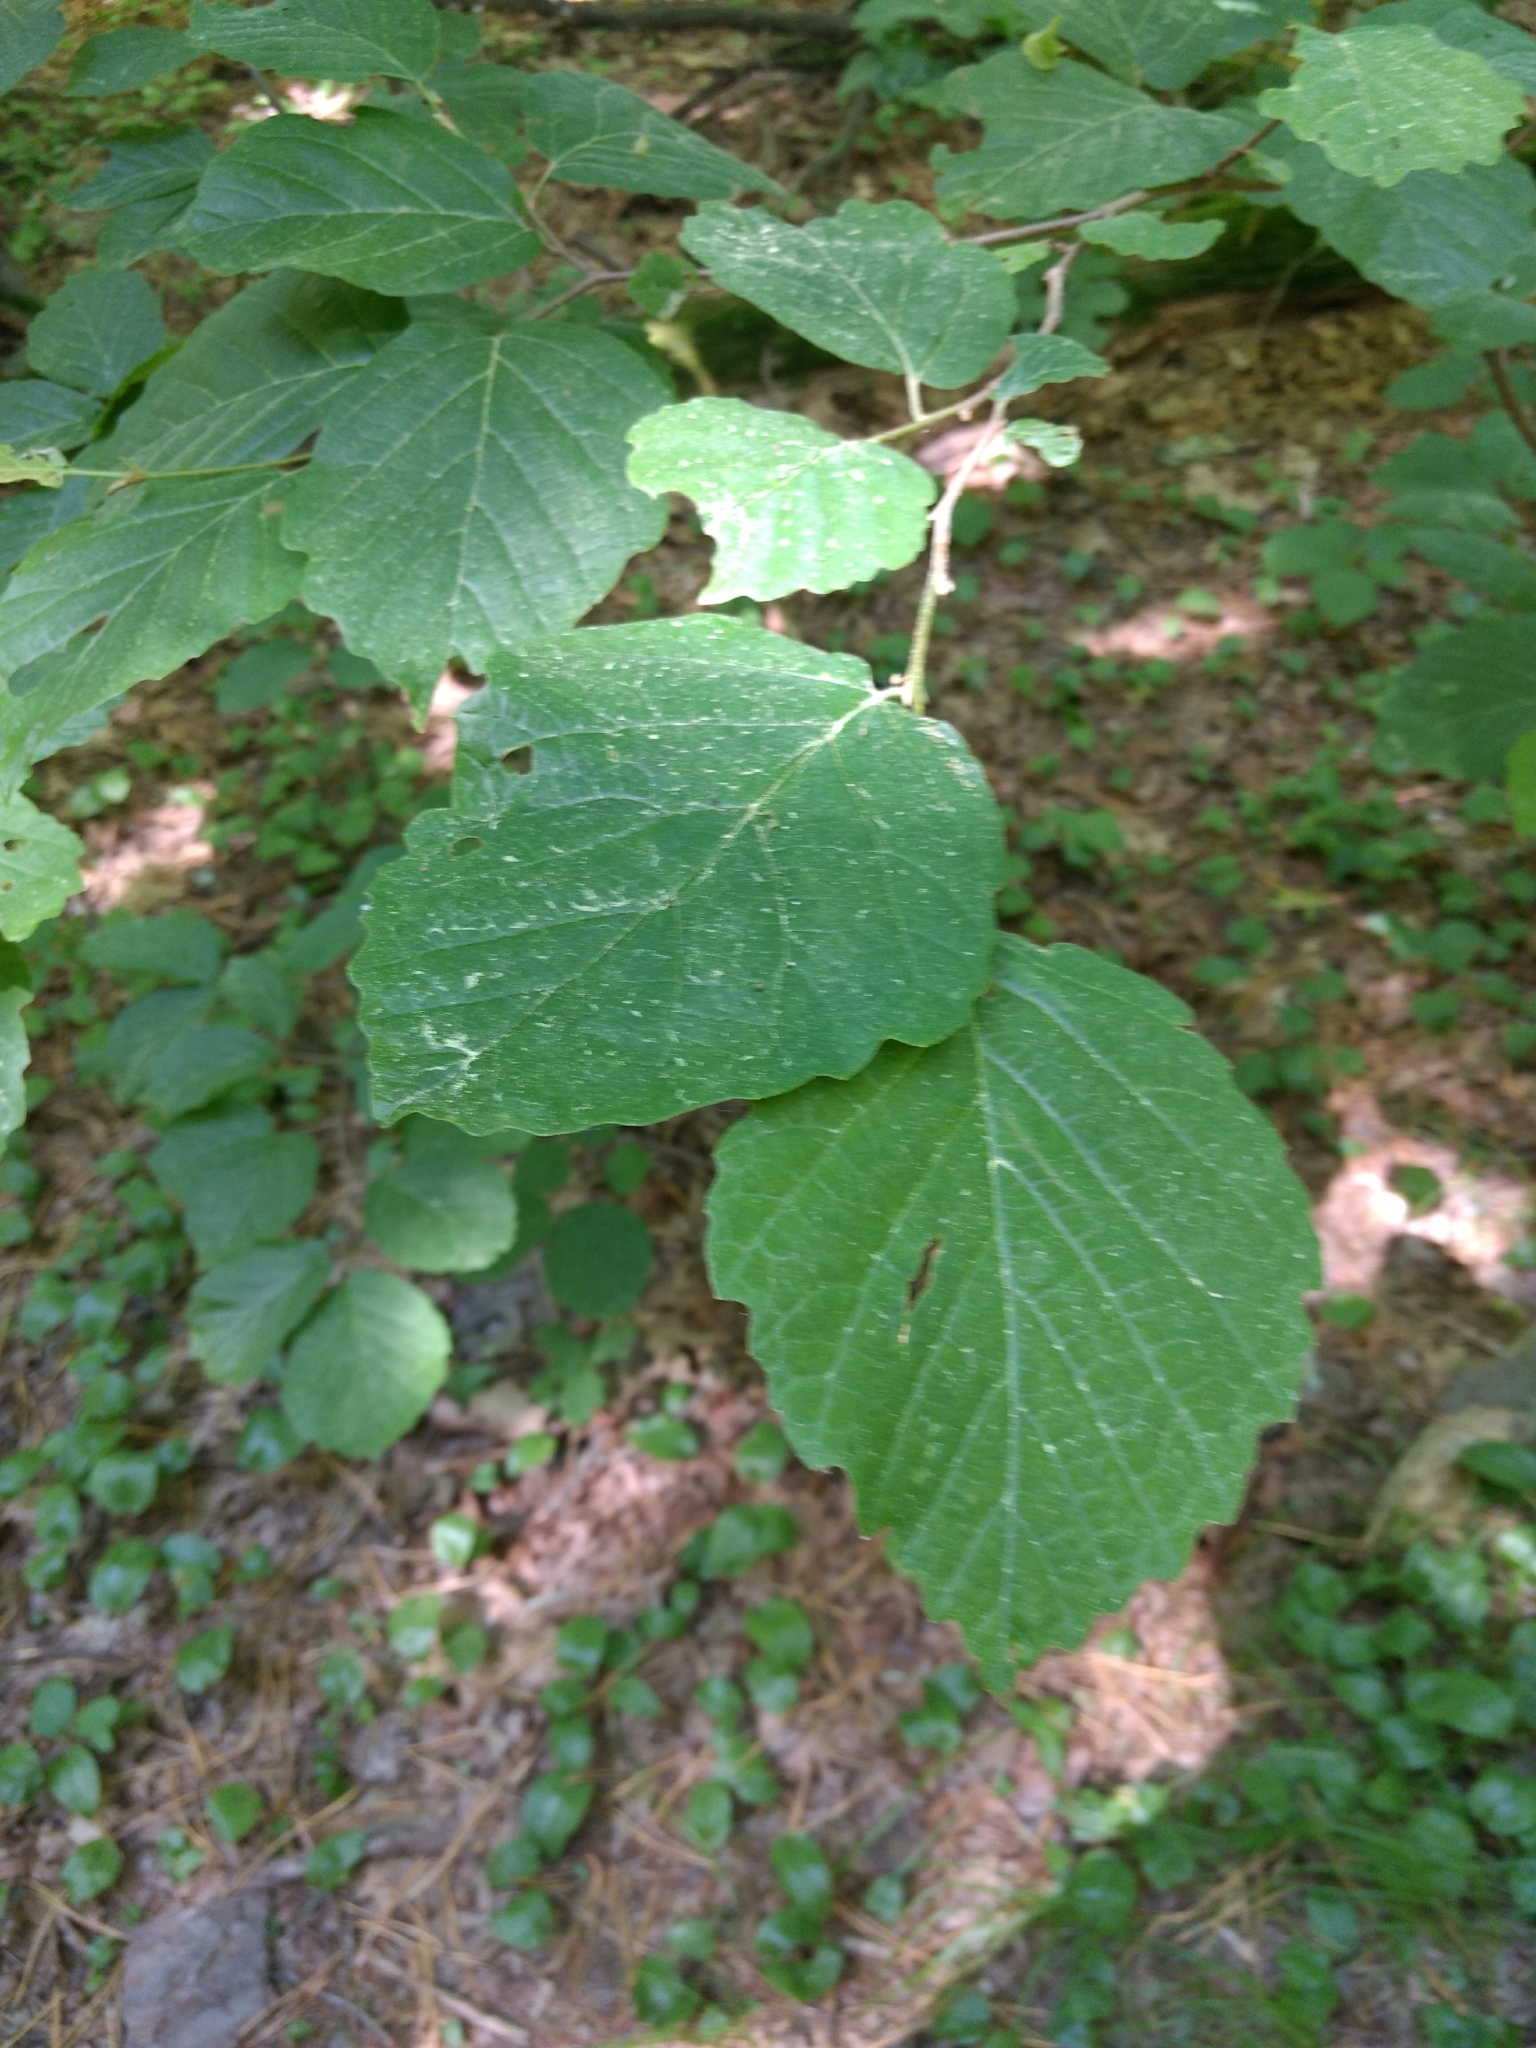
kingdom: Plantae
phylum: Tracheophyta
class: Magnoliopsida
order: Saxifragales
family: Hamamelidaceae
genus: Hamamelis
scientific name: Hamamelis virginiana
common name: Witch-hazel
